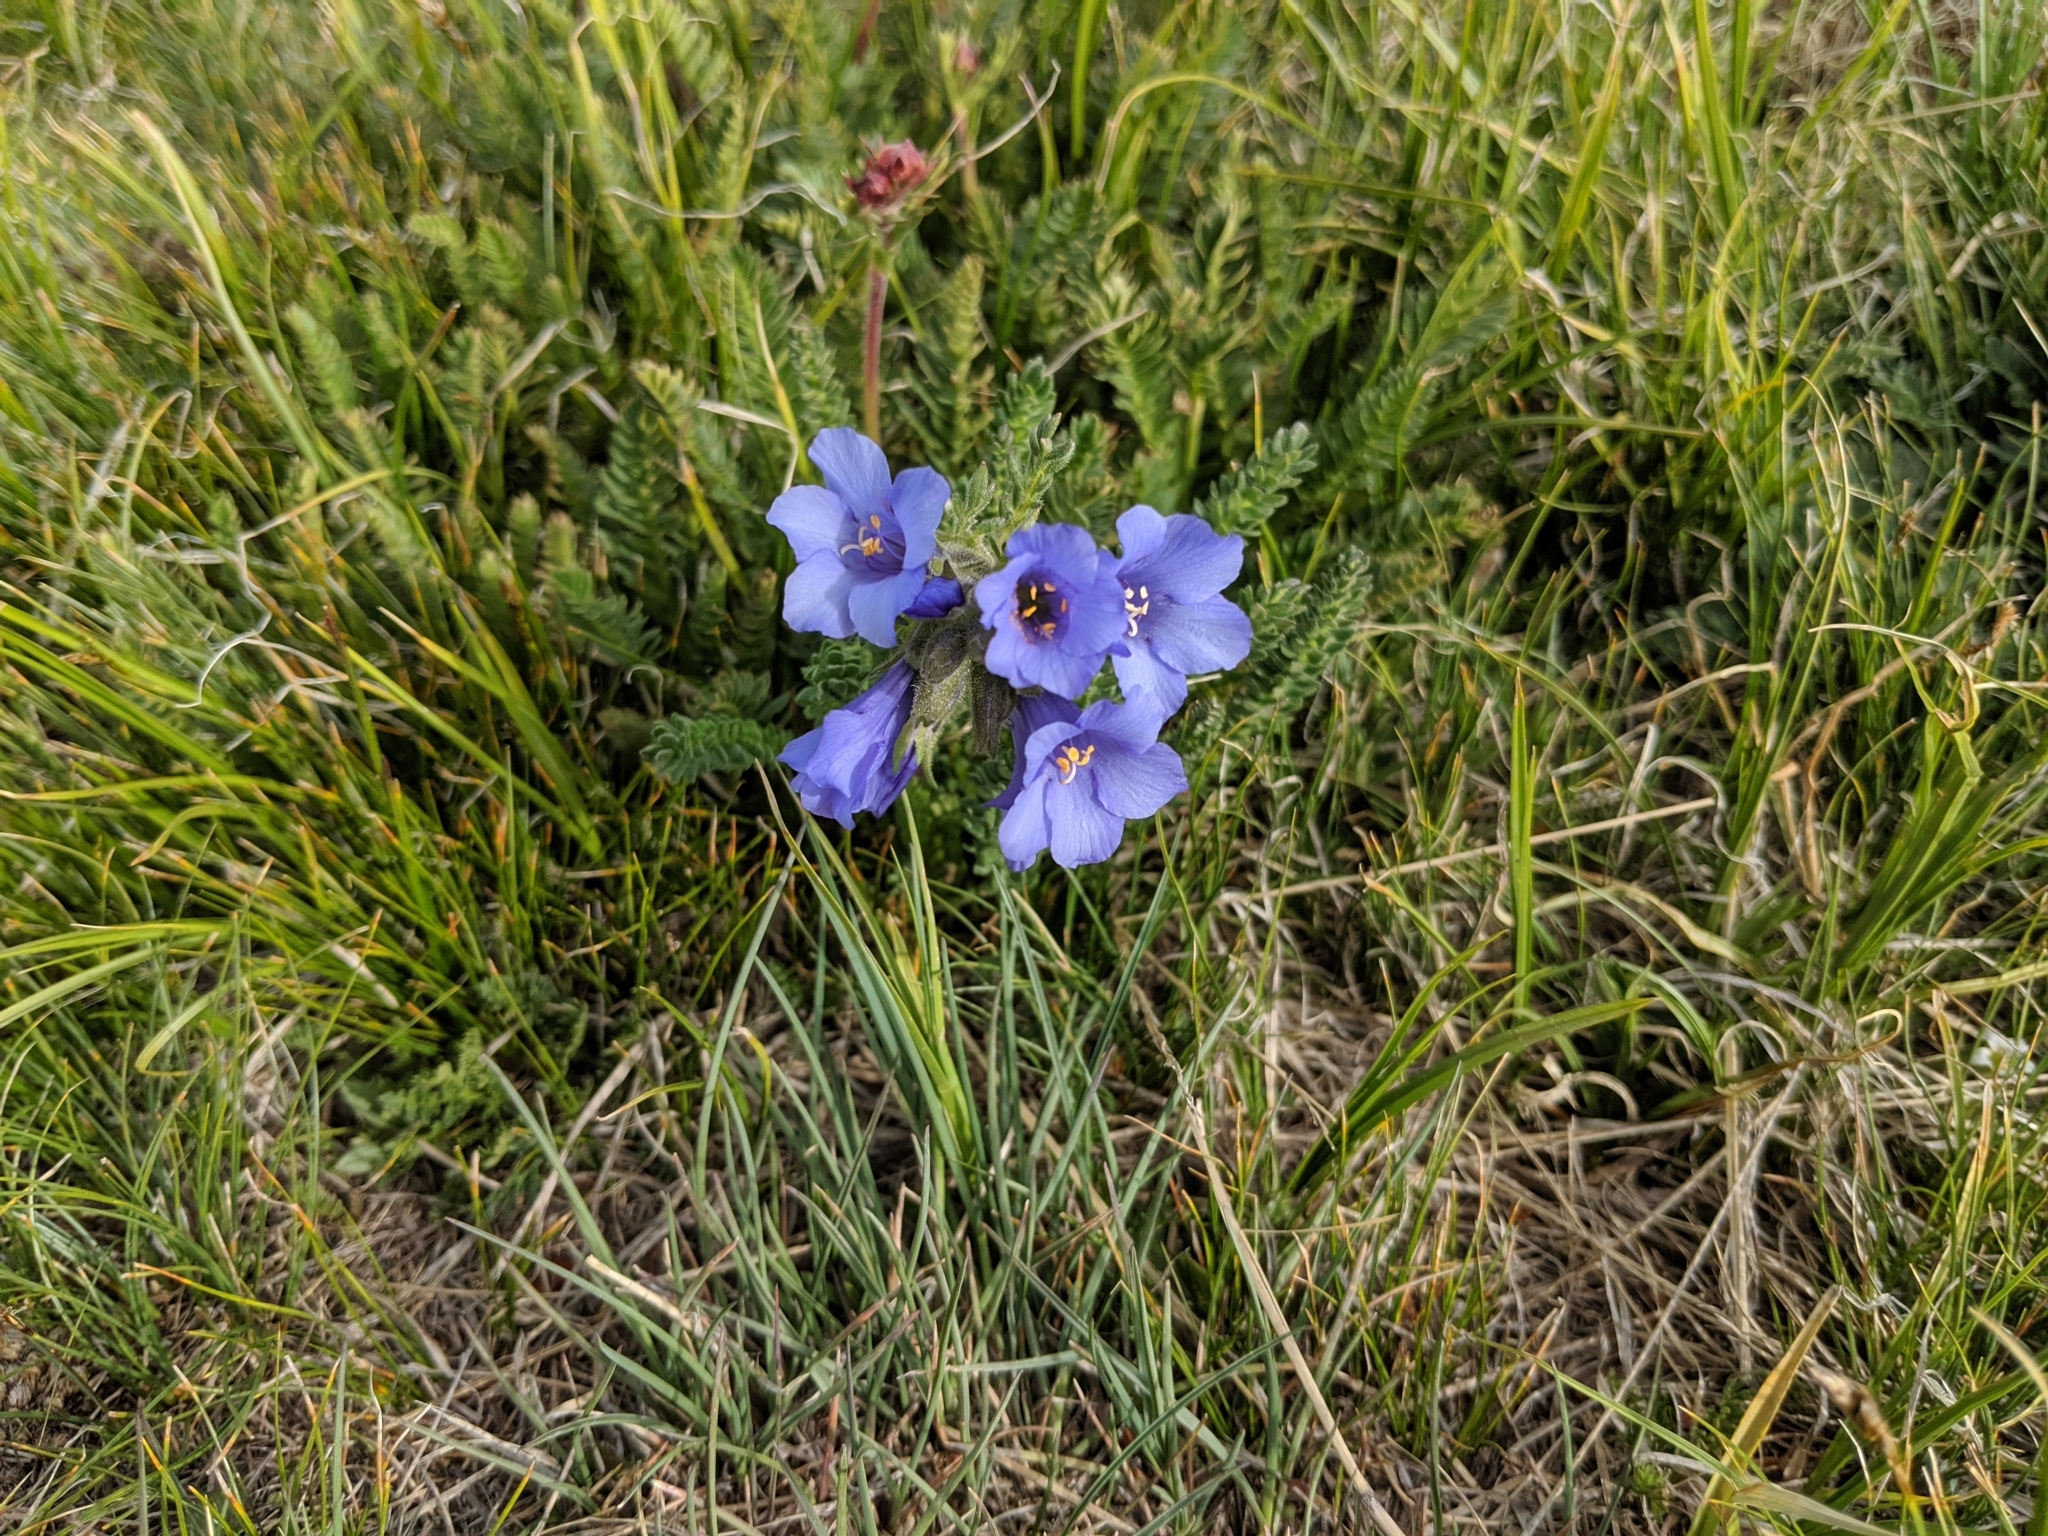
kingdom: Plantae
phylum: Tracheophyta
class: Magnoliopsida
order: Ericales
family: Polemoniaceae
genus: Polemonium
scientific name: Polemonium viscosum
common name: Skunk jacob's-ladder
